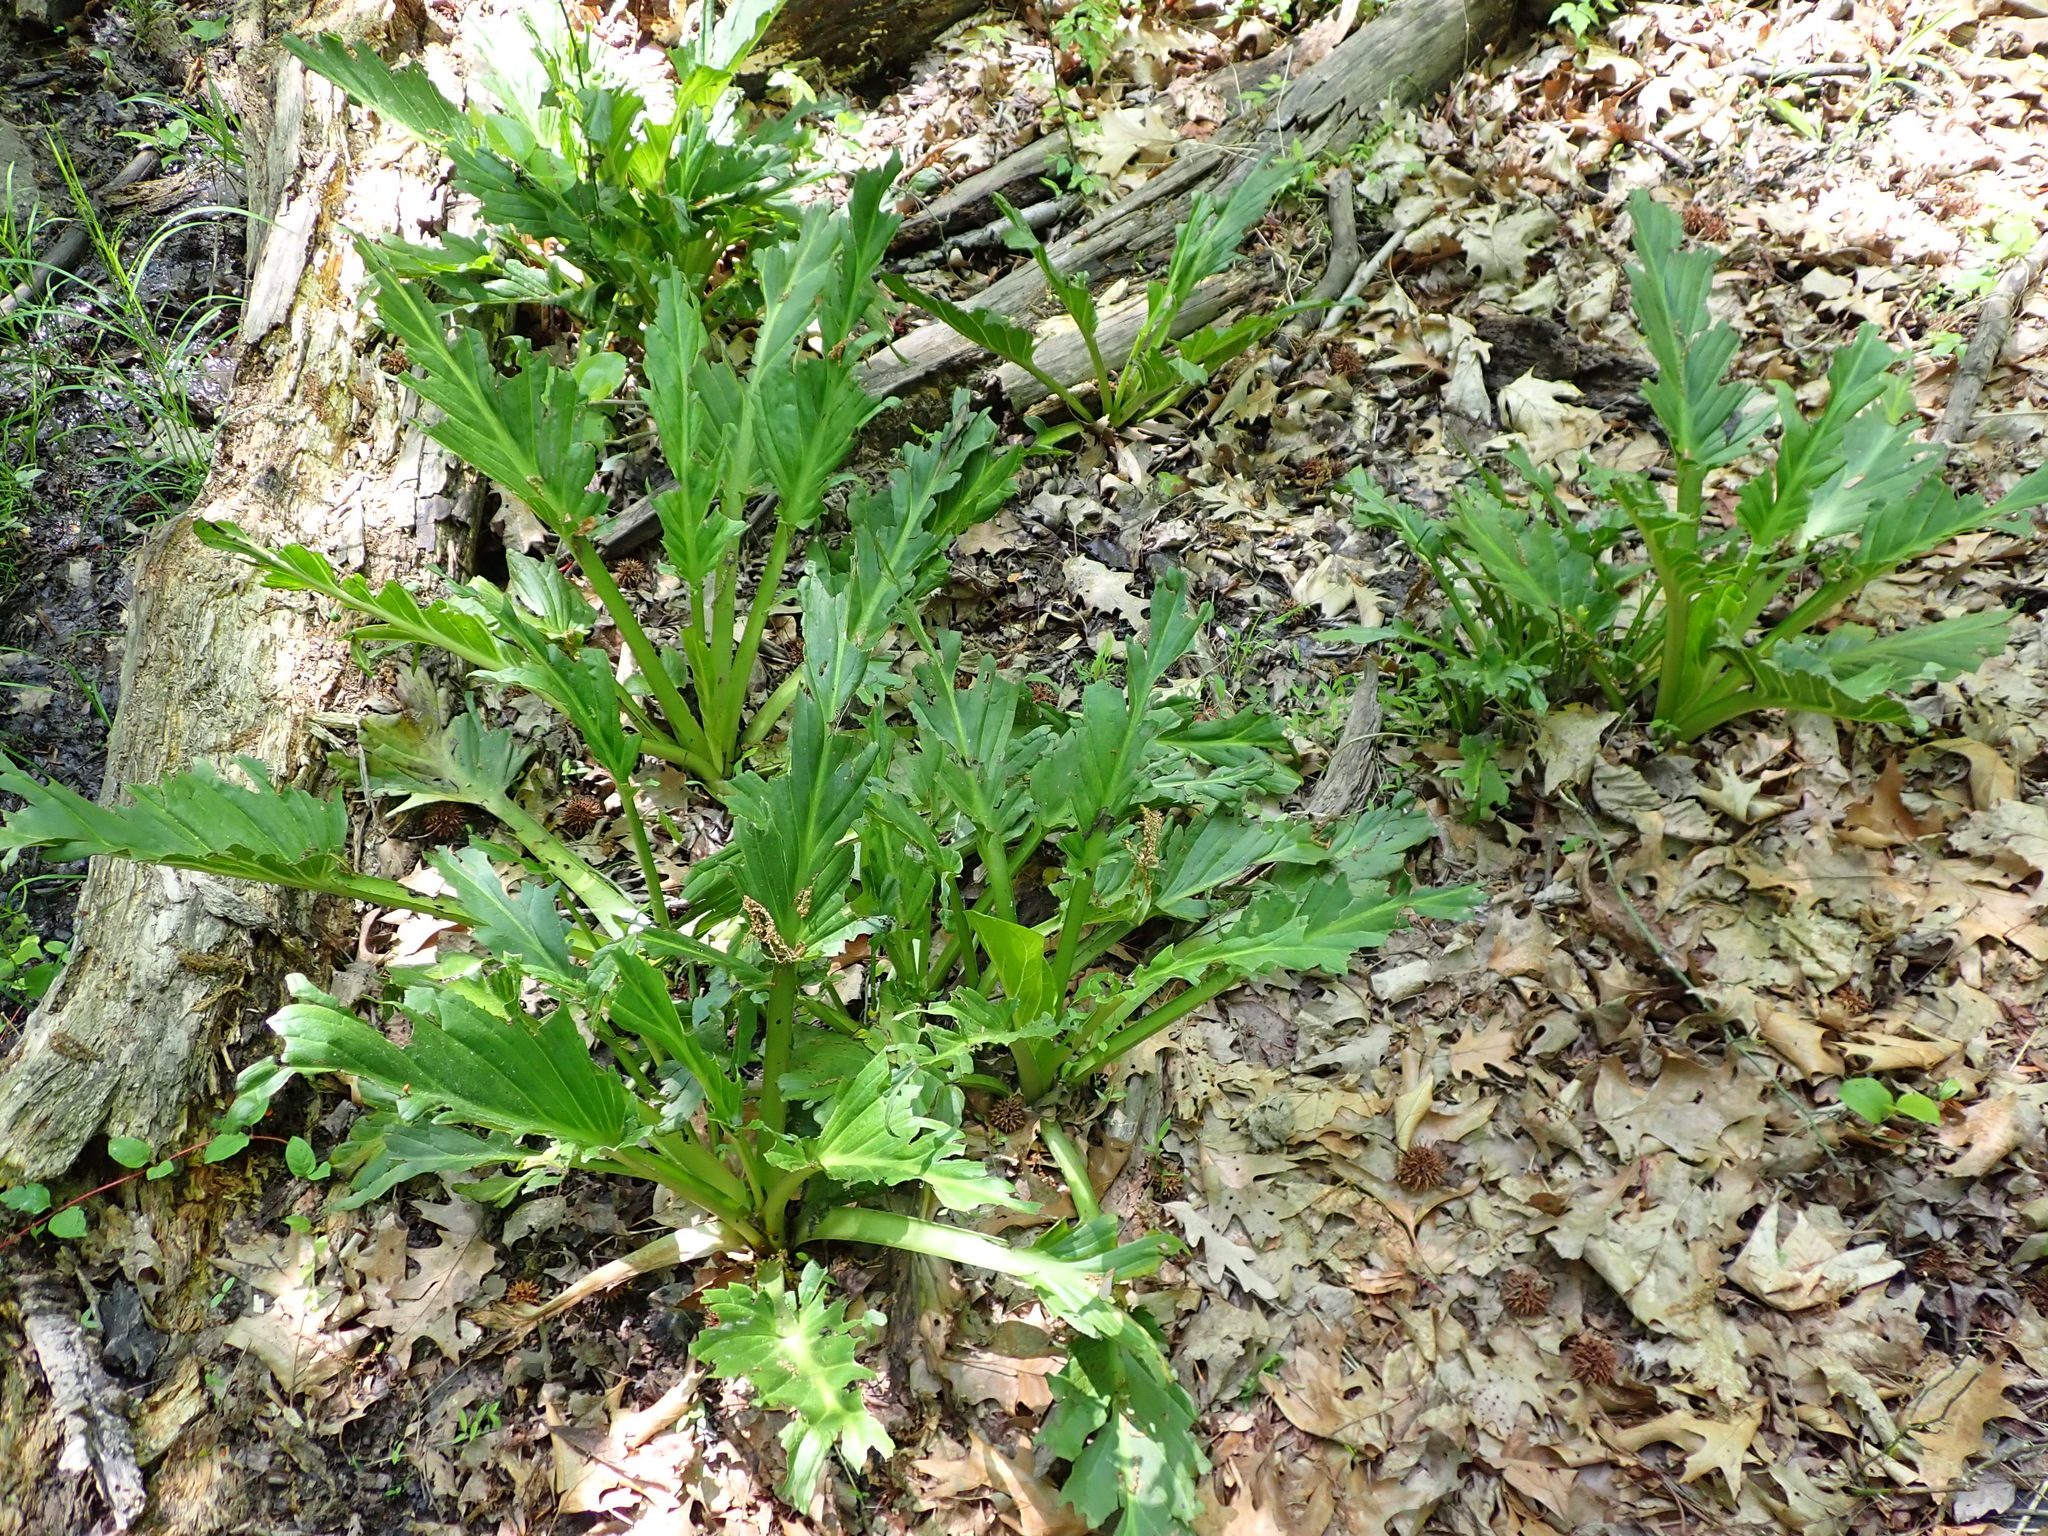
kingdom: Plantae
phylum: Tracheophyta
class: Liliopsida
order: Alismatales
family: Araceae
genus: Symplocarpus
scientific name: Symplocarpus foetidus
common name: Eastern skunk cabbage
